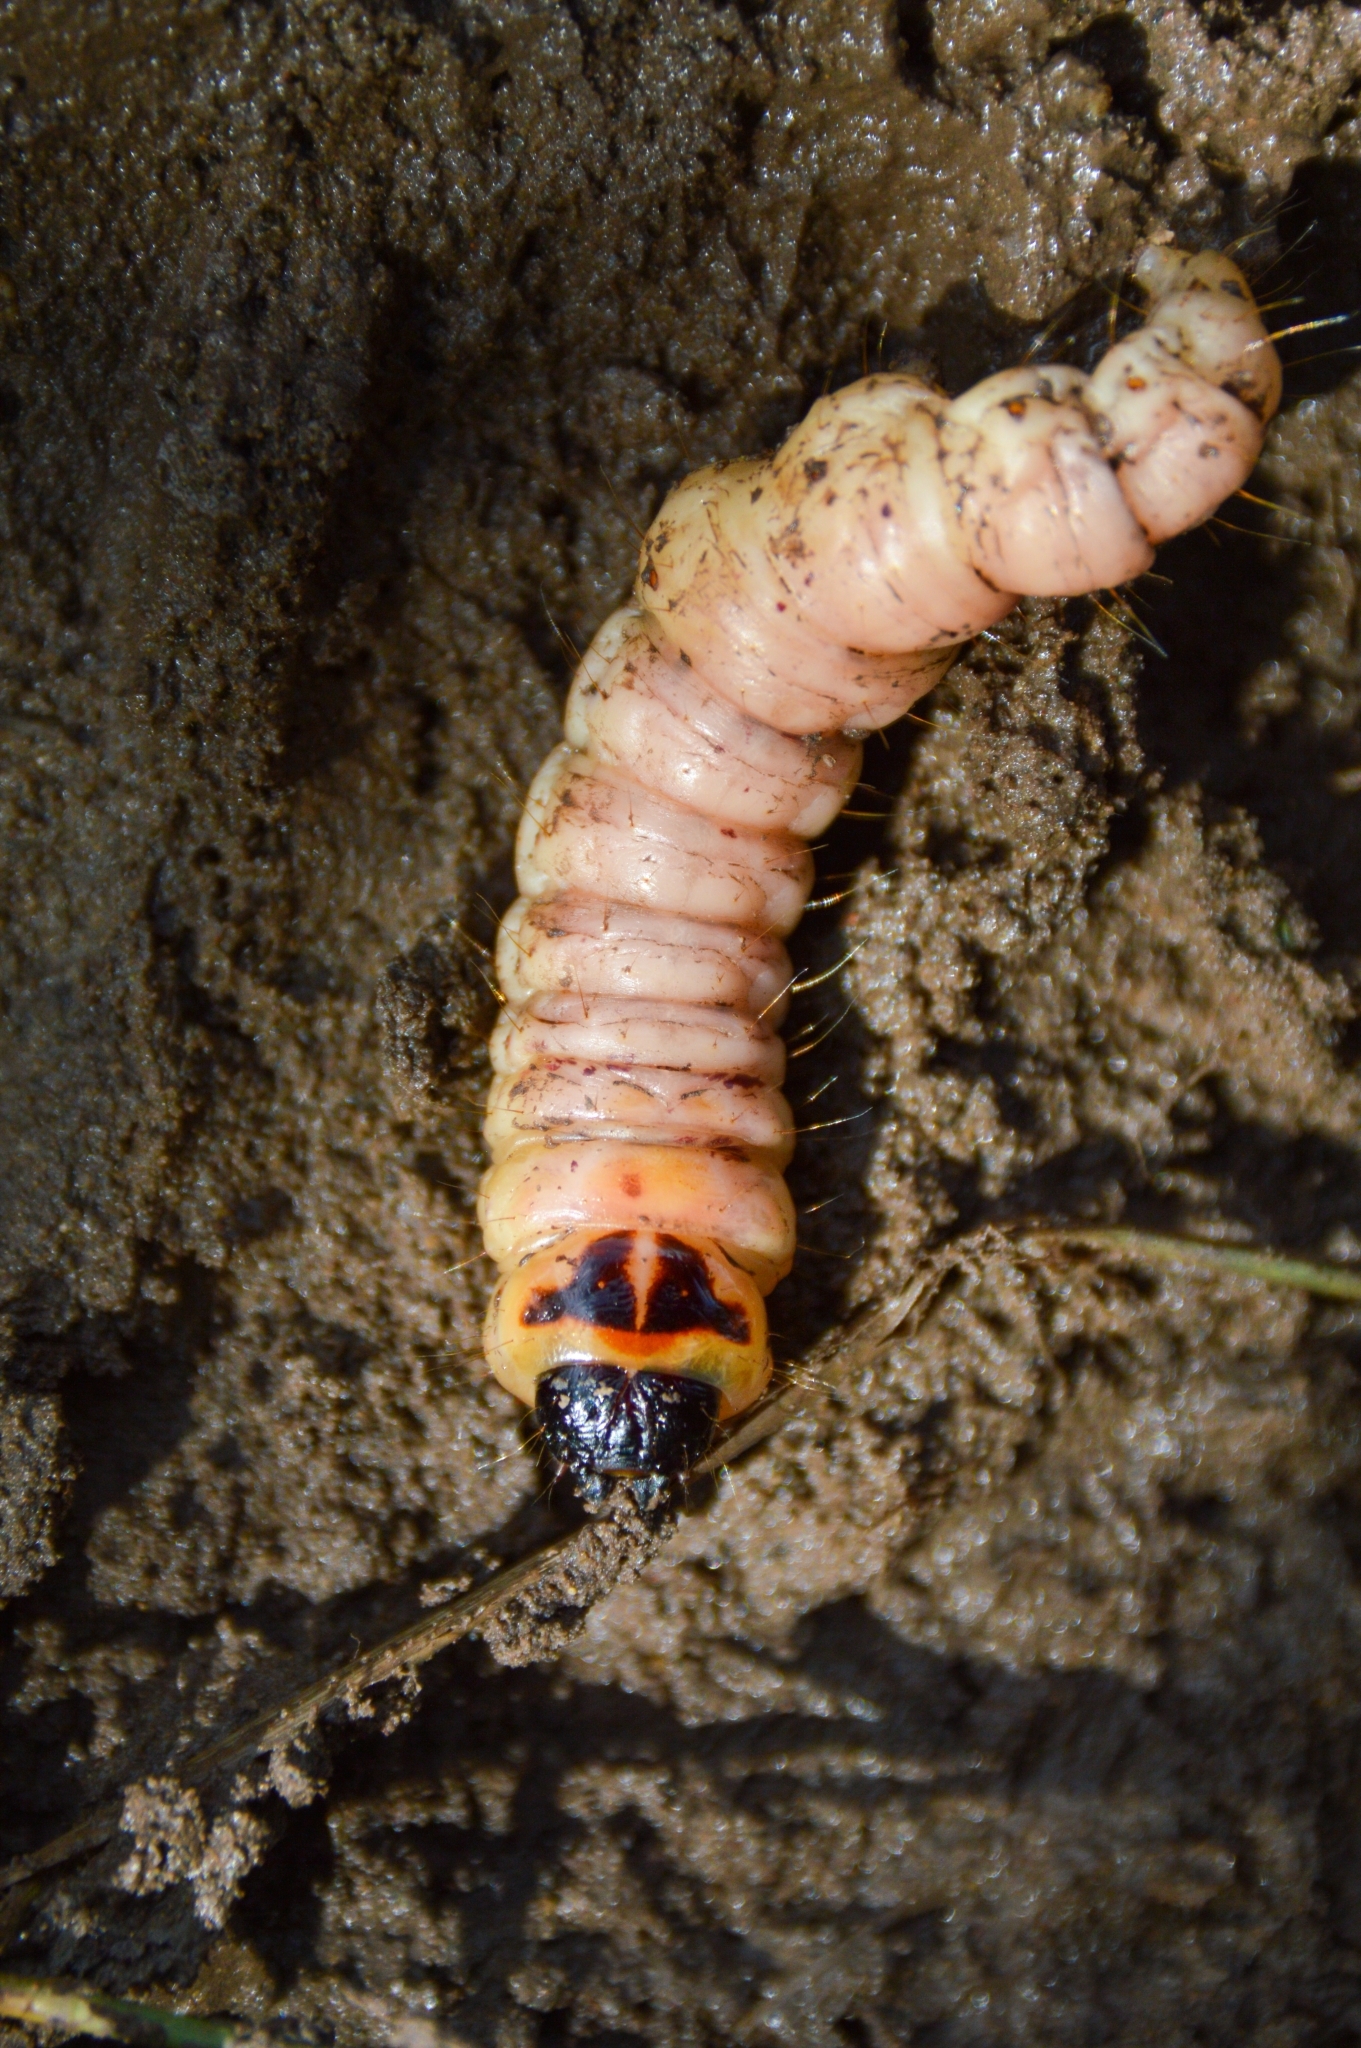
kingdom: Animalia
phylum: Arthropoda
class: Insecta
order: Lepidoptera
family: Cossidae
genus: Cossus
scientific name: Cossus cossus
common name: Goat moth
